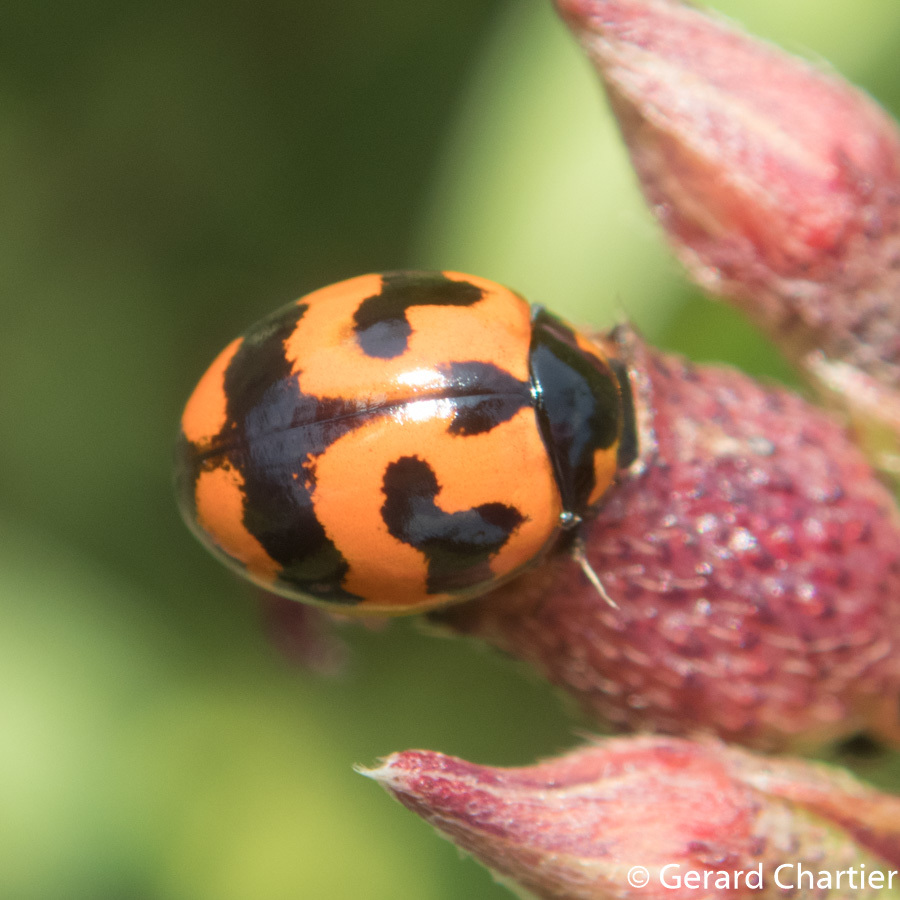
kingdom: Animalia
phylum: Arthropoda
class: Insecta
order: Coleoptera
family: Coccinellidae
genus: Coccinella
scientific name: Coccinella transversalis
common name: Transverse lady beetle
